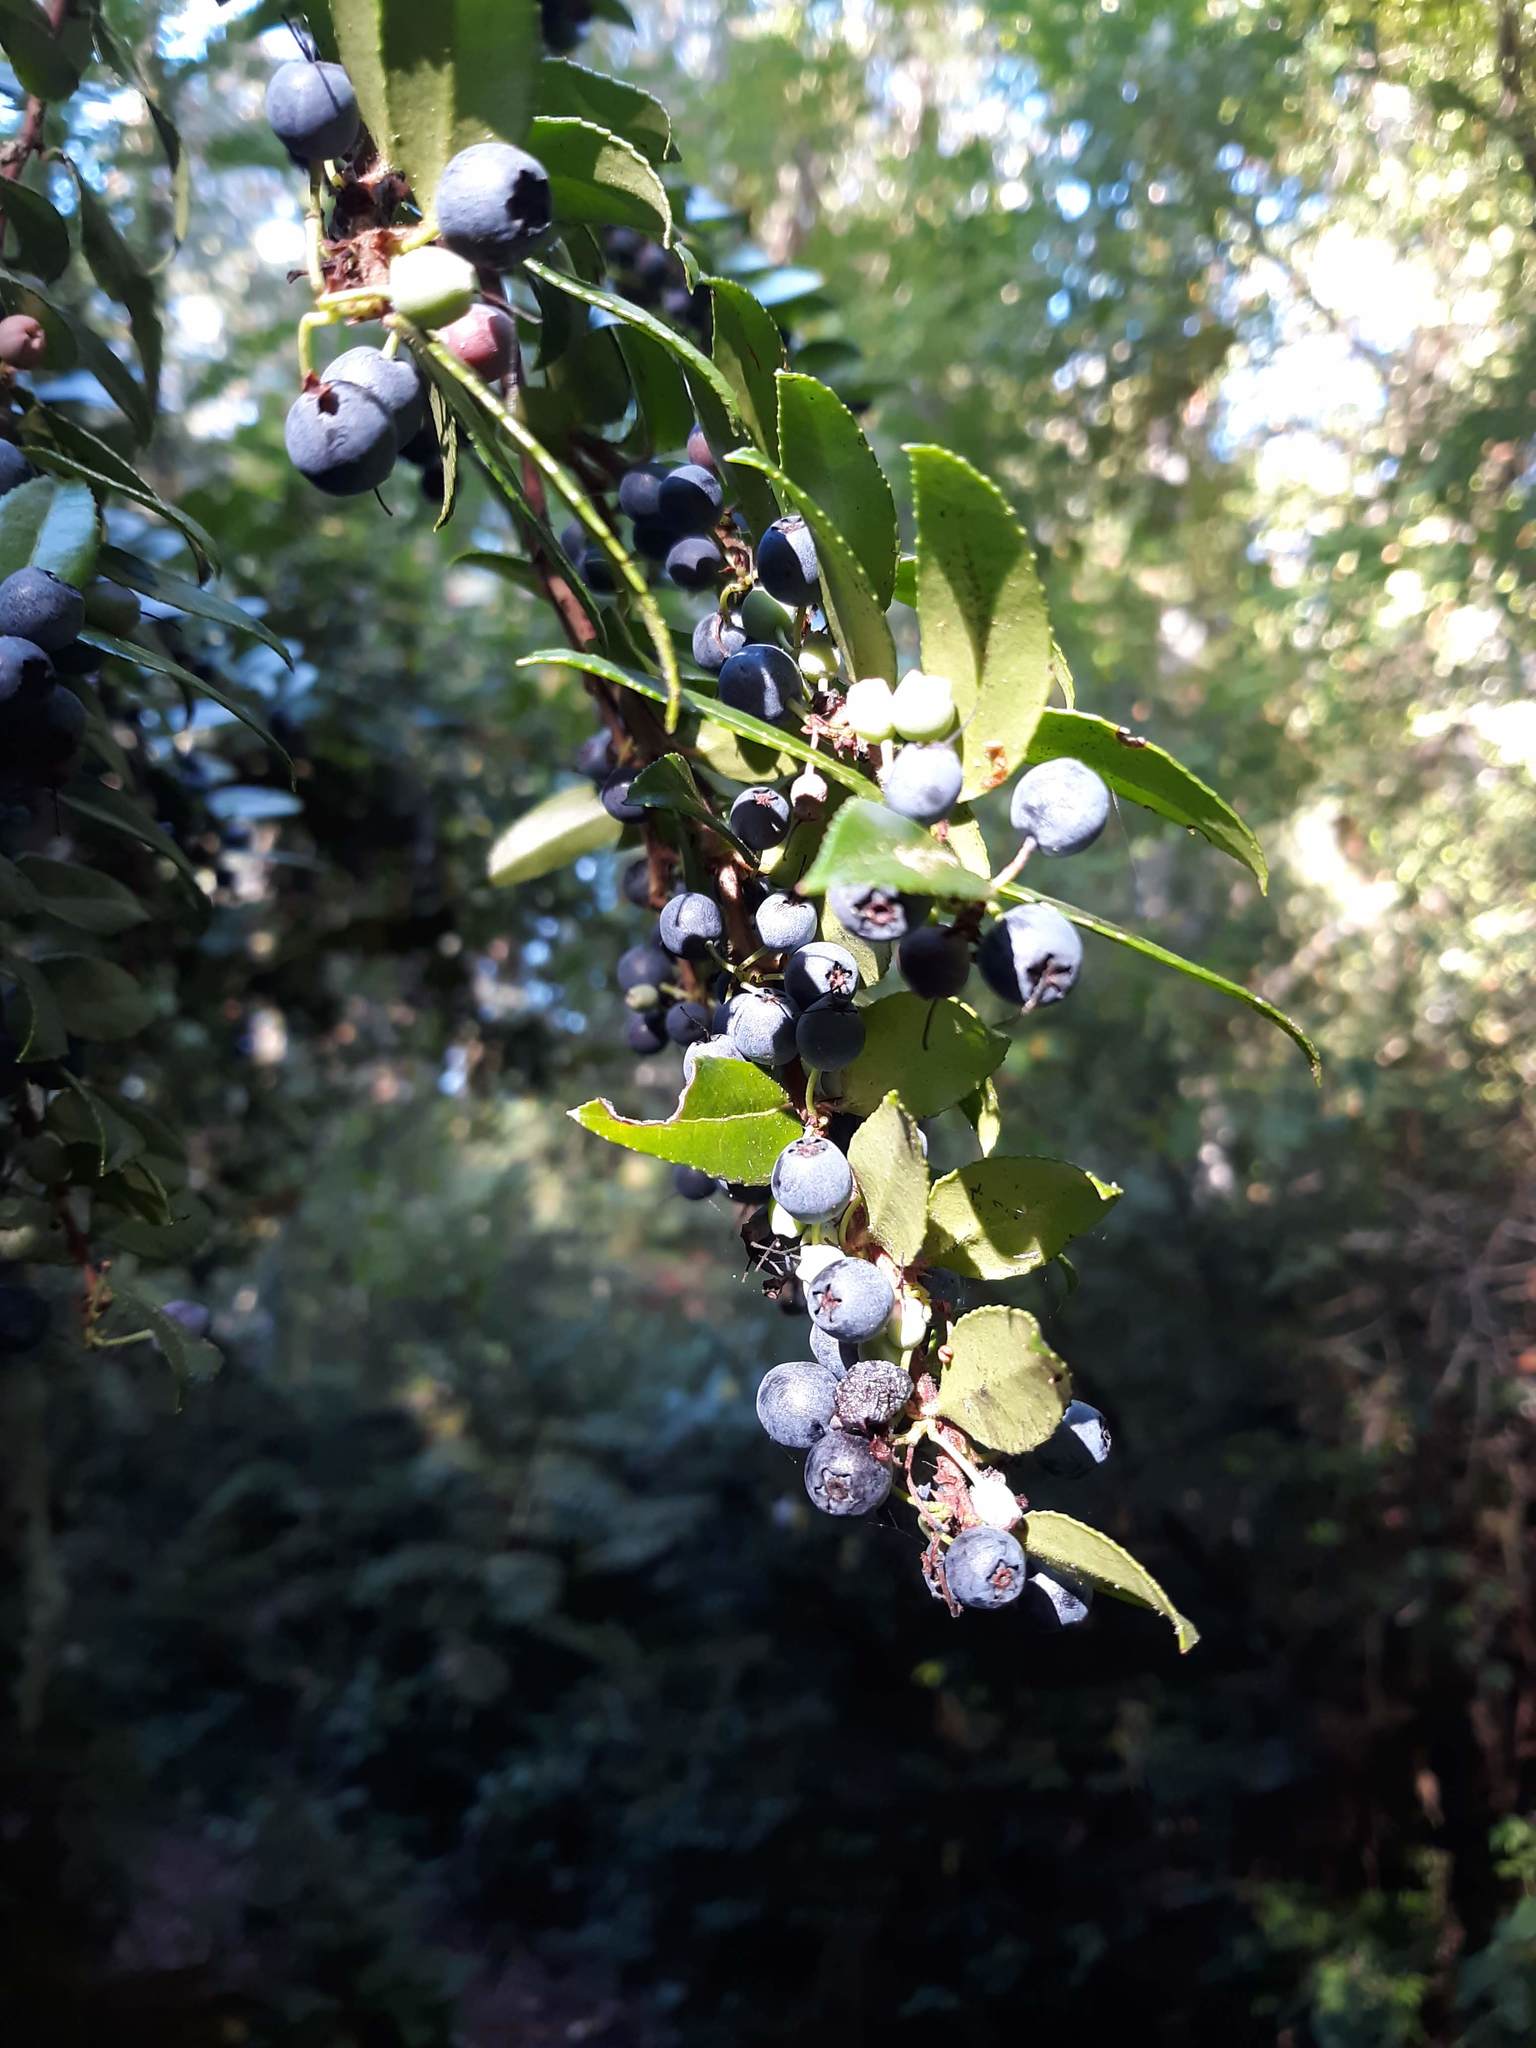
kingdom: Plantae
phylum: Tracheophyta
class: Magnoliopsida
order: Ericales
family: Ericaceae
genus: Vaccinium
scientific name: Vaccinium ovatum
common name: California-huckleberry
